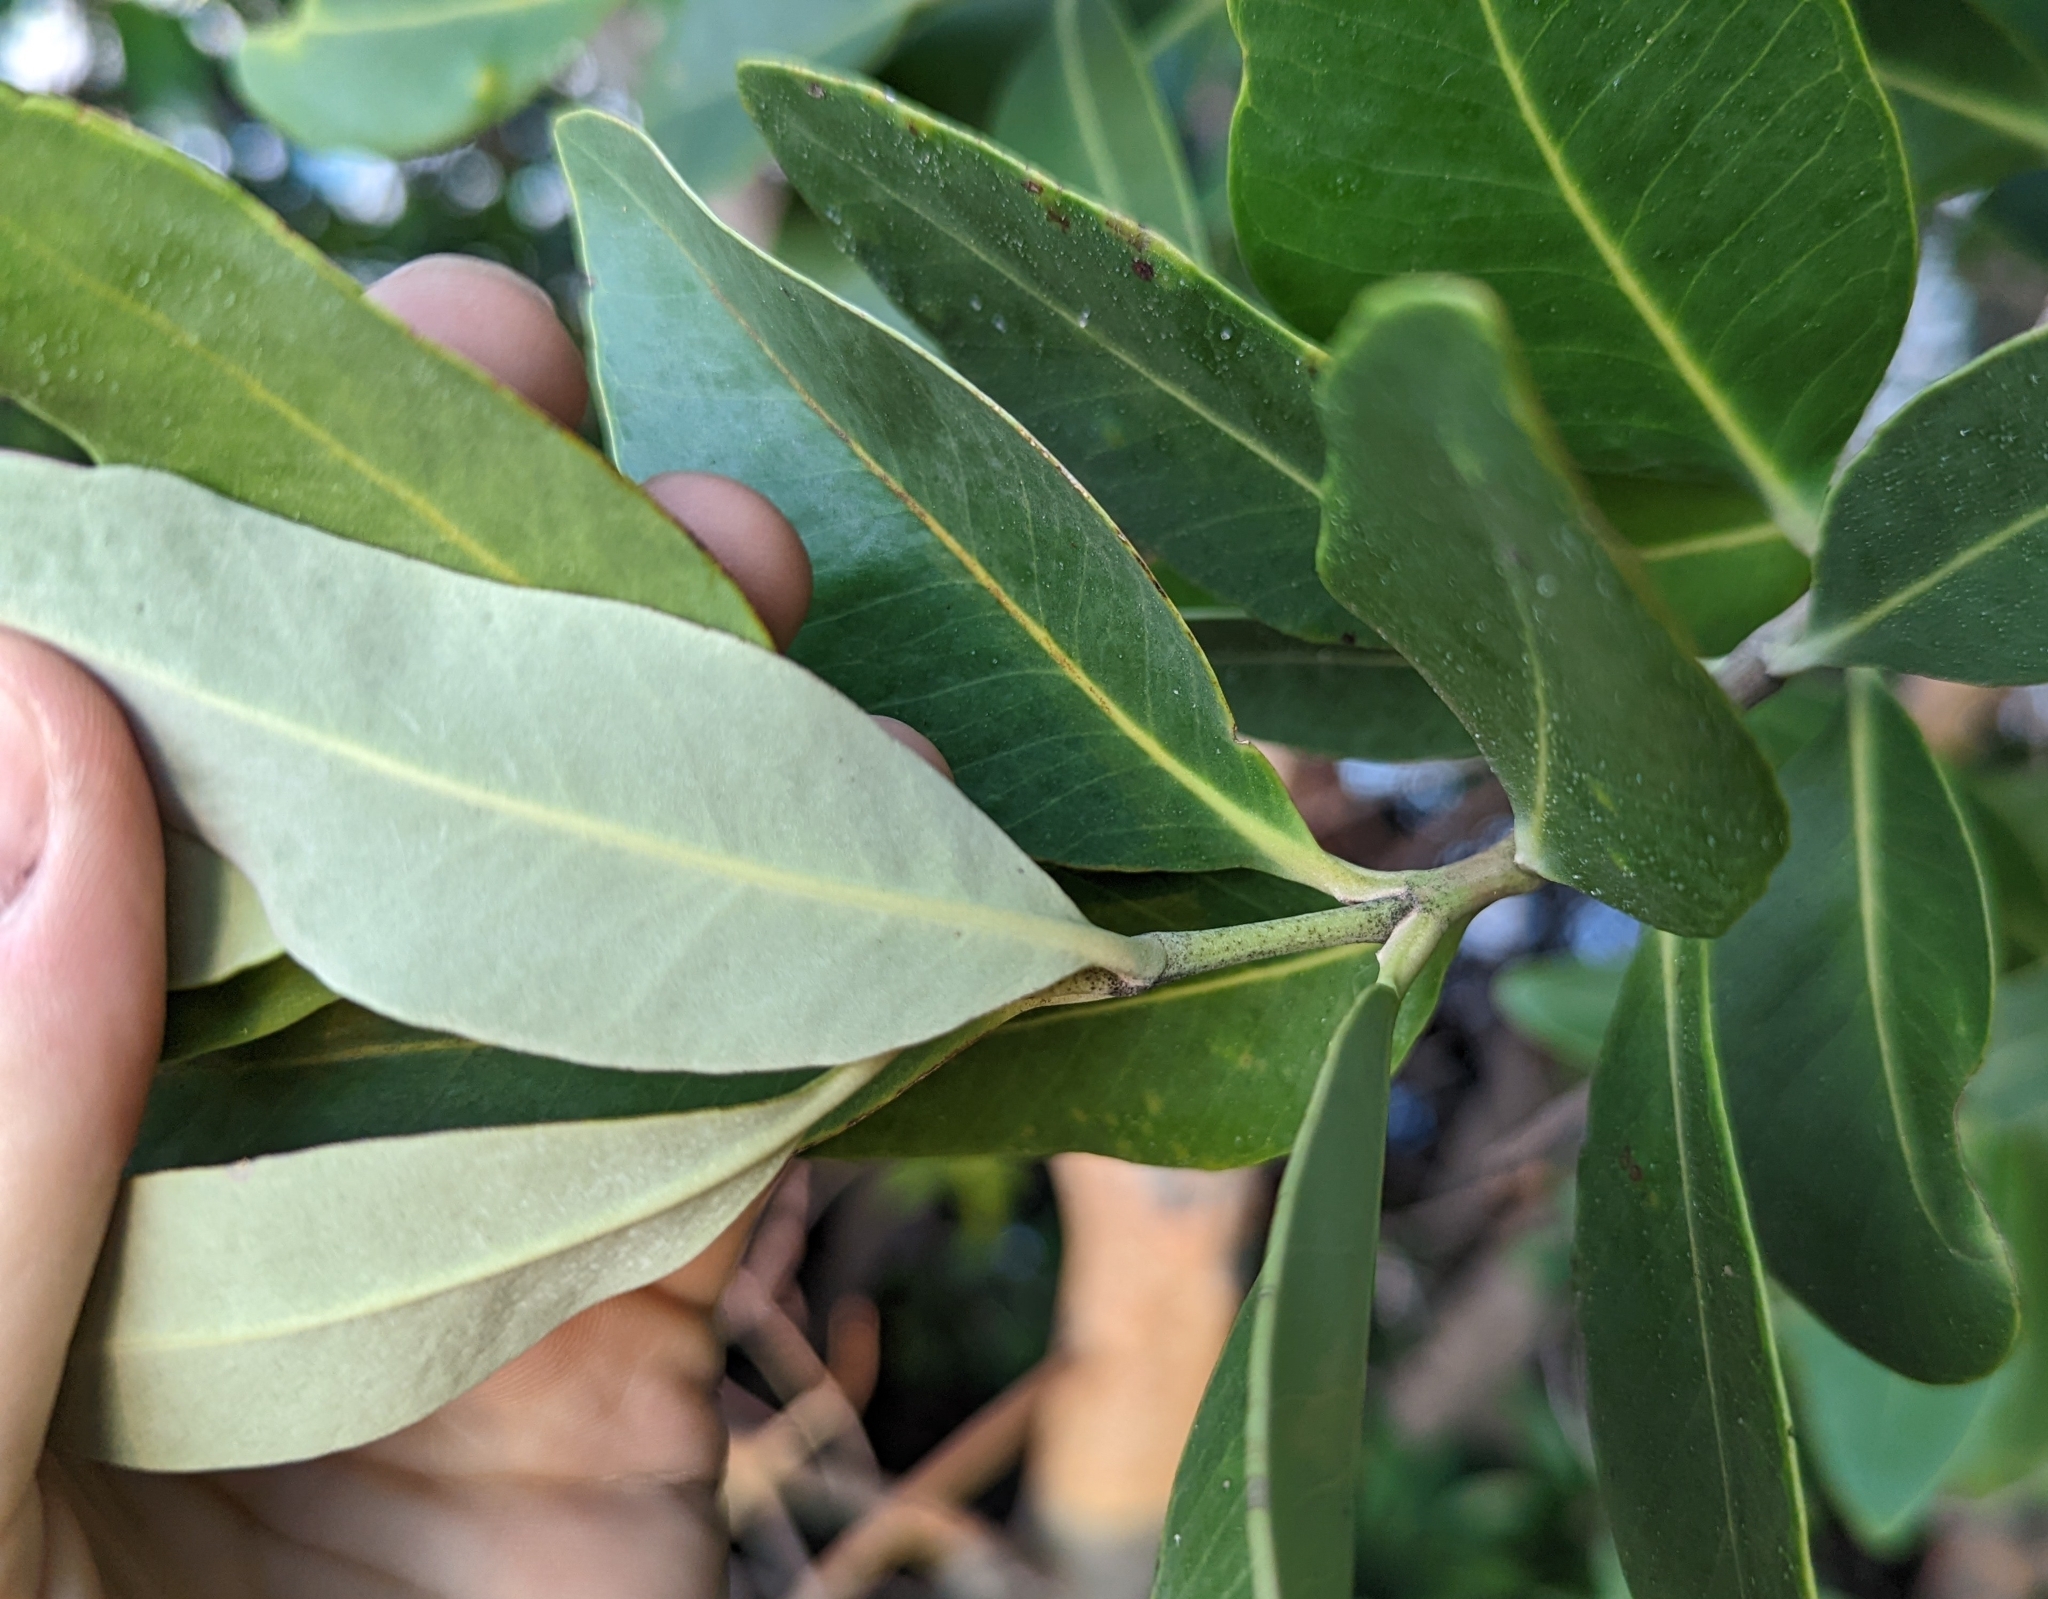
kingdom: Plantae
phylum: Tracheophyta
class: Magnoliopsida
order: Lamiales
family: Acanthaceae
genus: Avicennia
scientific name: Avicennia germinans
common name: Black mangrove
